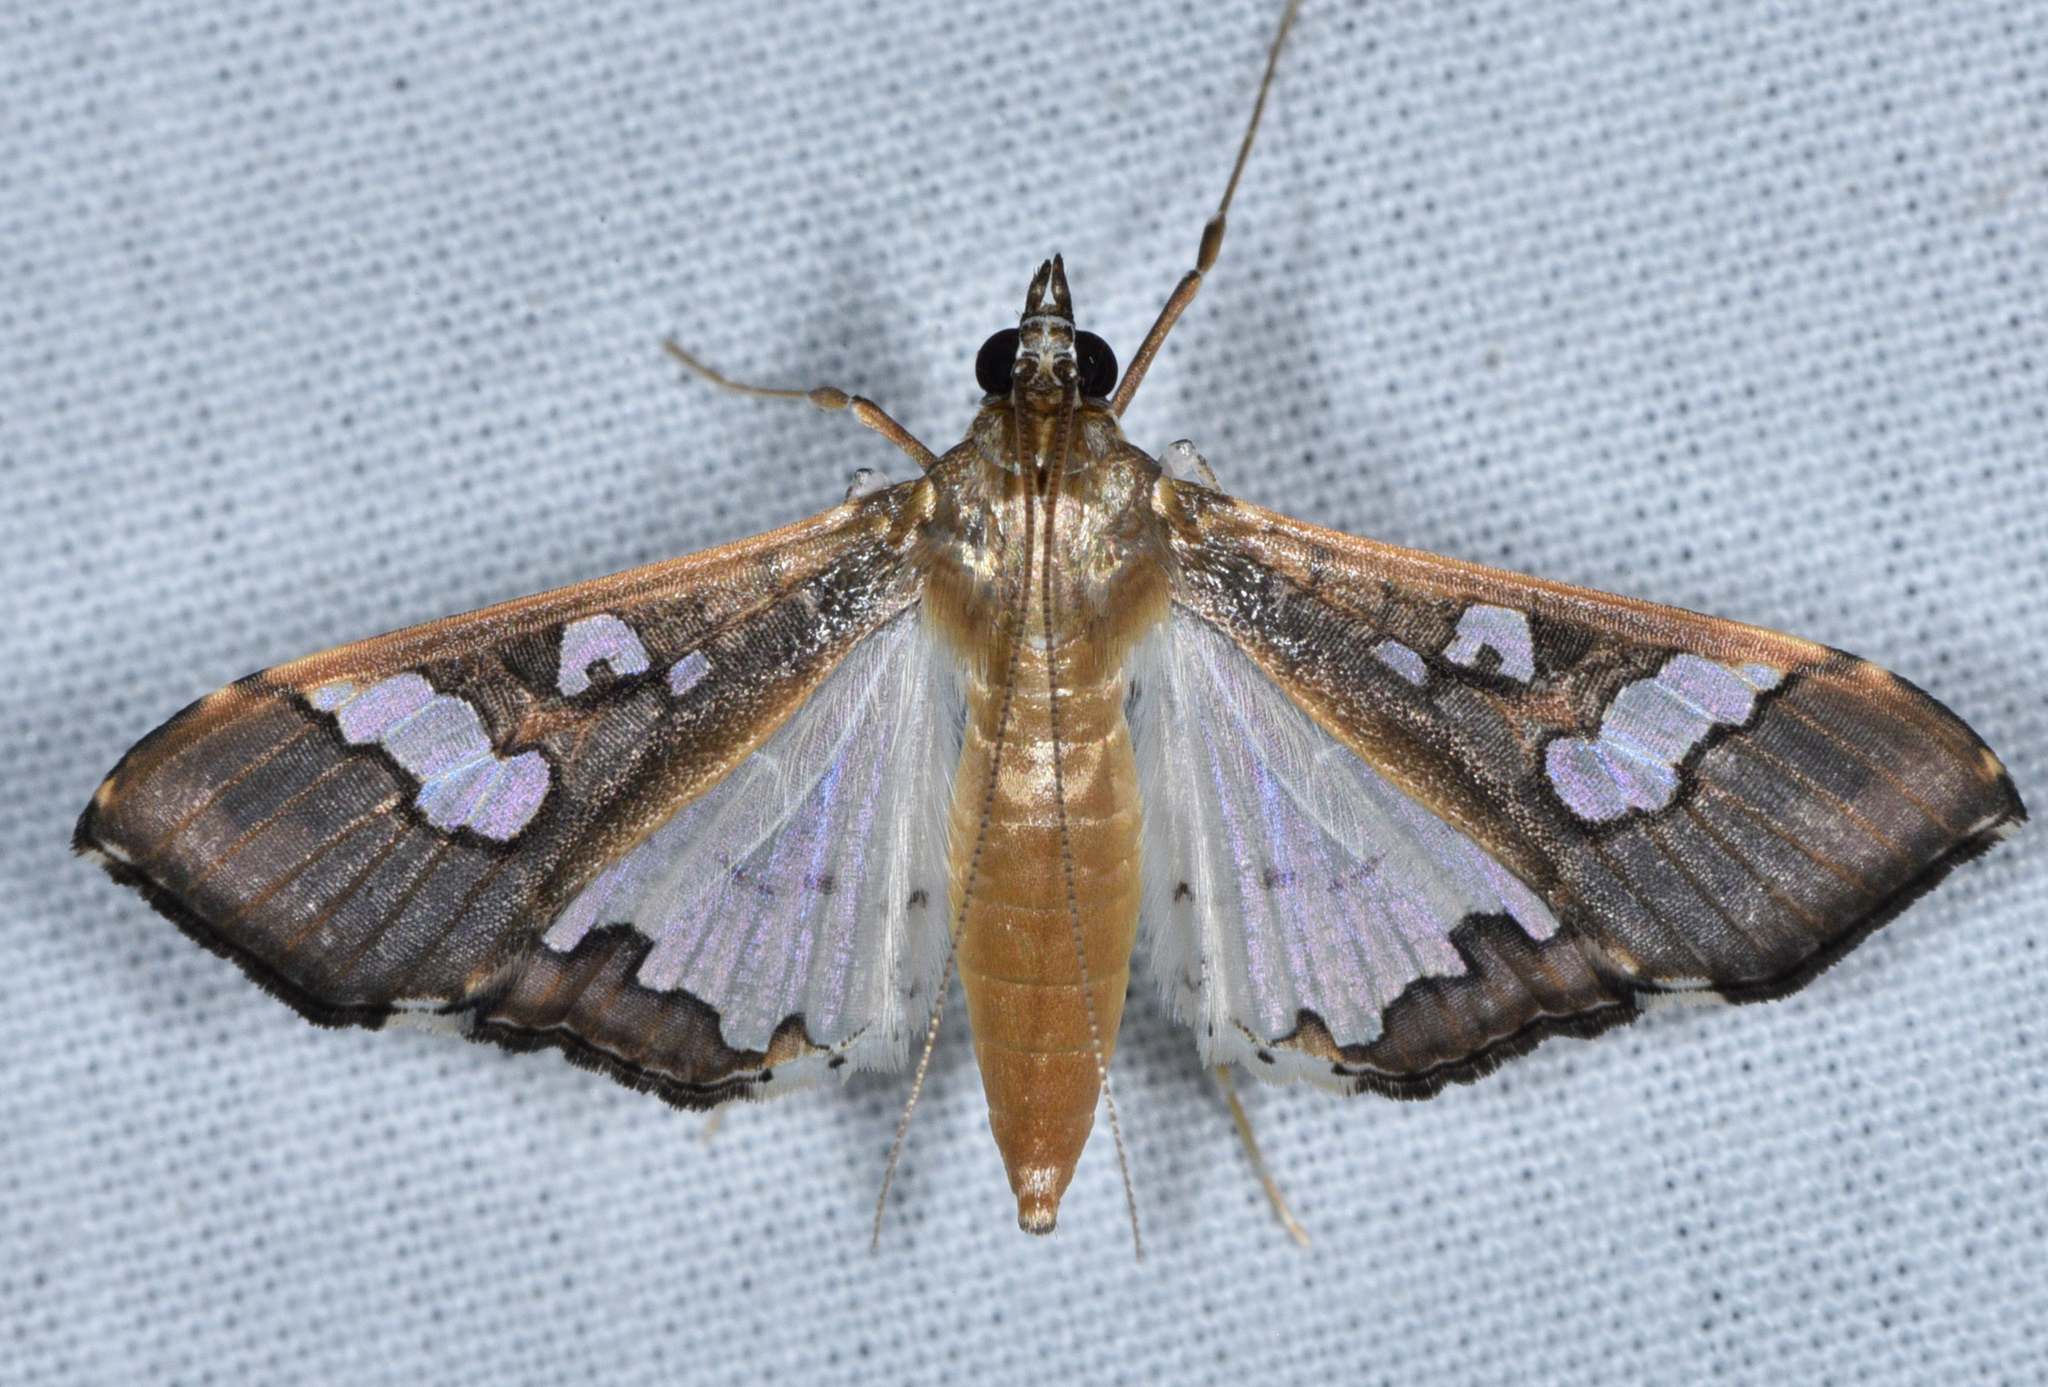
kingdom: Animalia
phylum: Arthropoda
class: Insecta
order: Lepidoptera
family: Crambidae
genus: Maruca
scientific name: Maruca vitrata
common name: Maruca pod borer
